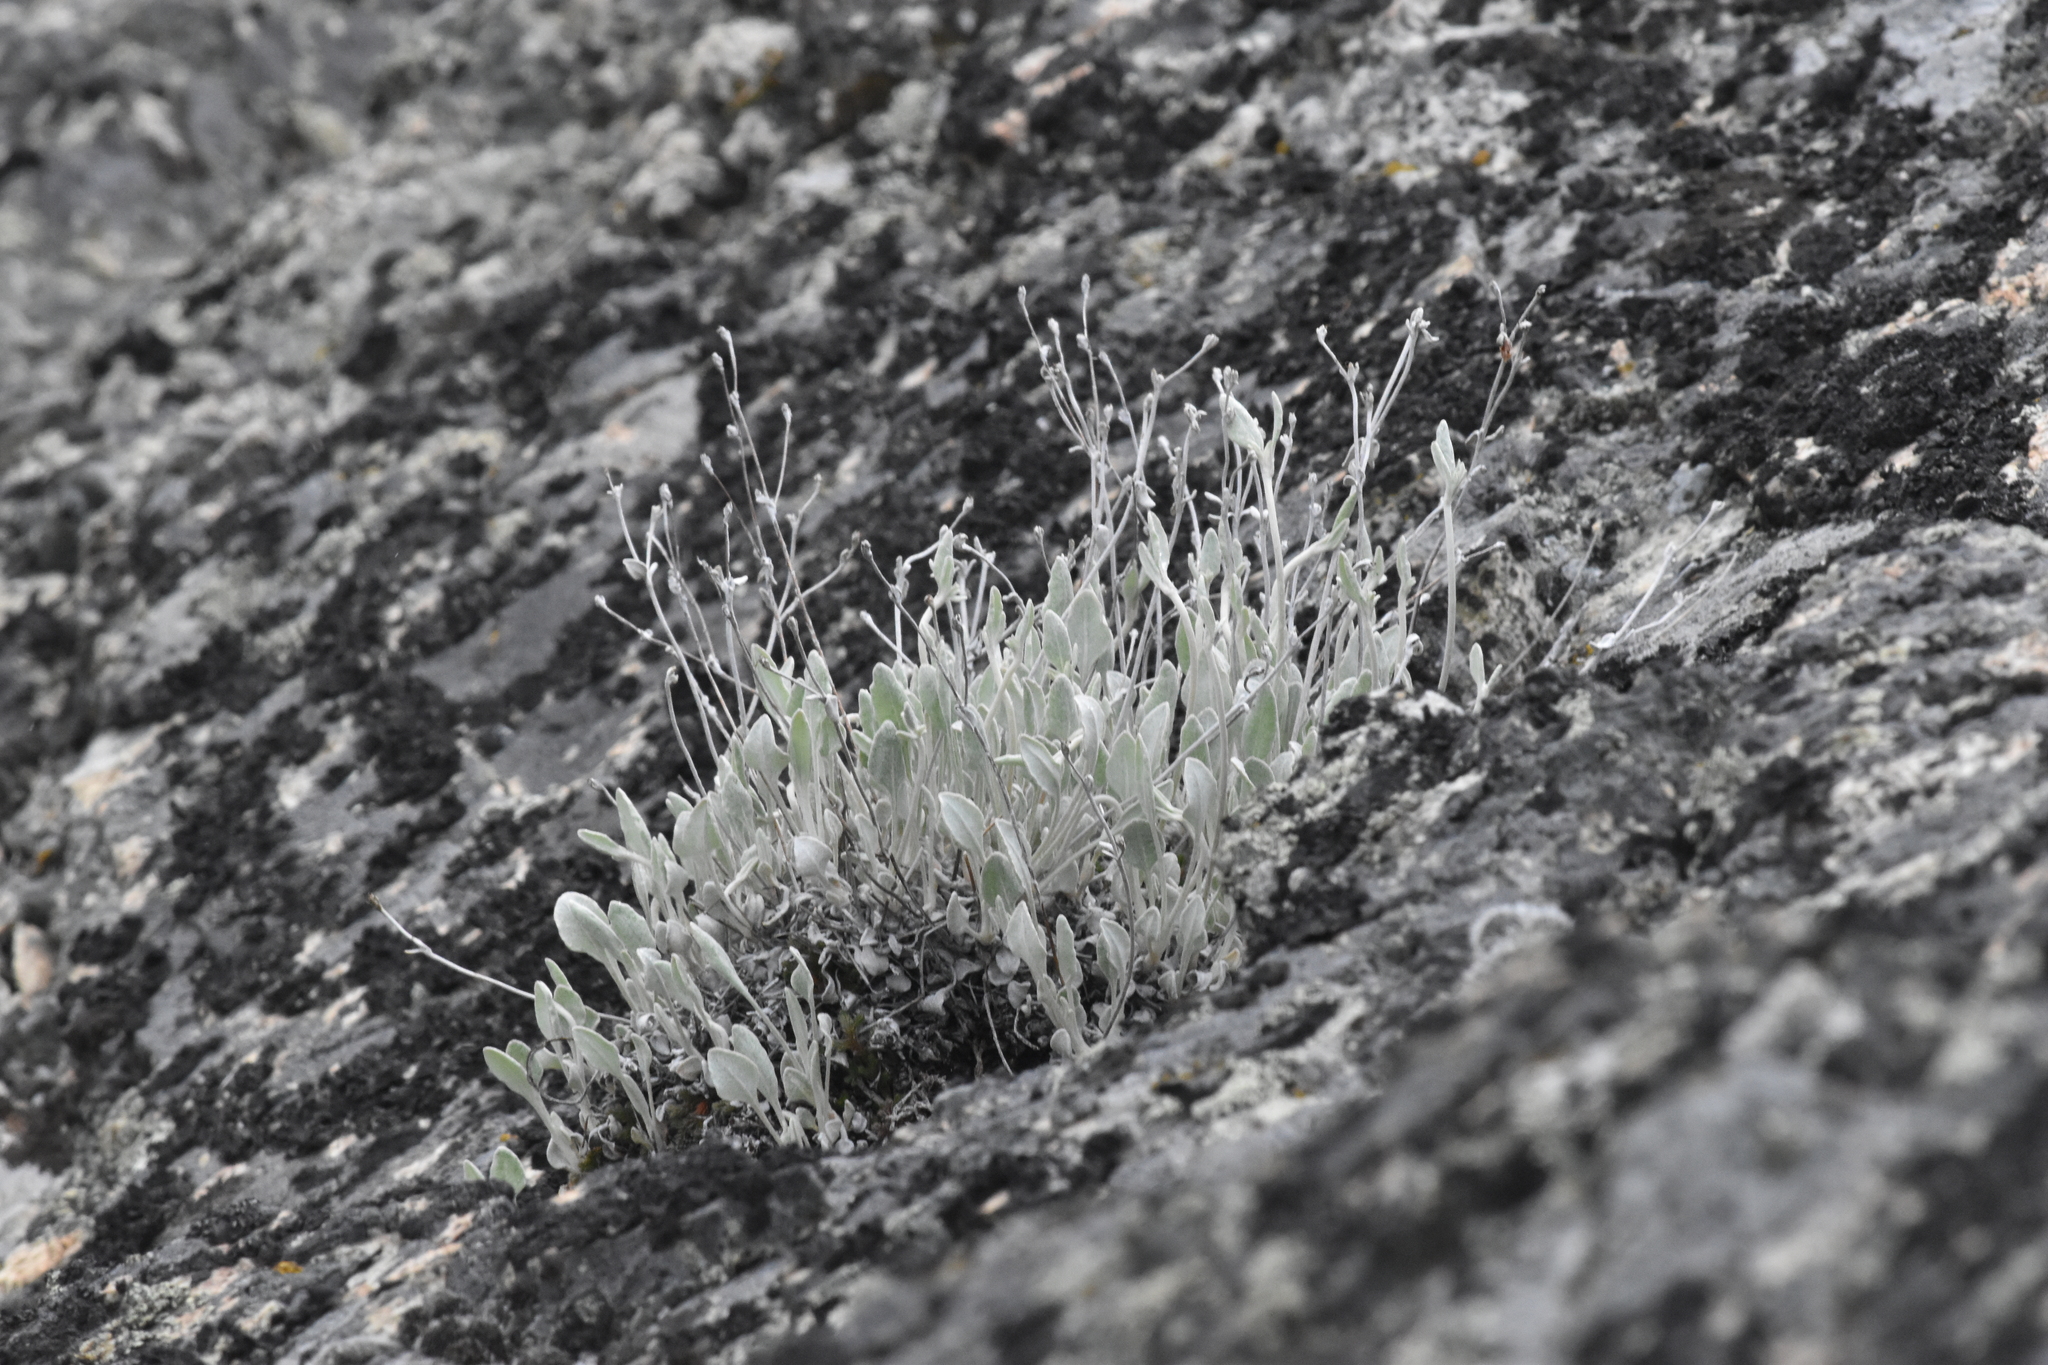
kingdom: Plantae
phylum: Tracheophyta
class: Magnoliopsida
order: Caryophyllales
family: Polygonaceae
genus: Eriogonum
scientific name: Eriogonum niveum
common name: Snow wild buckwheat
